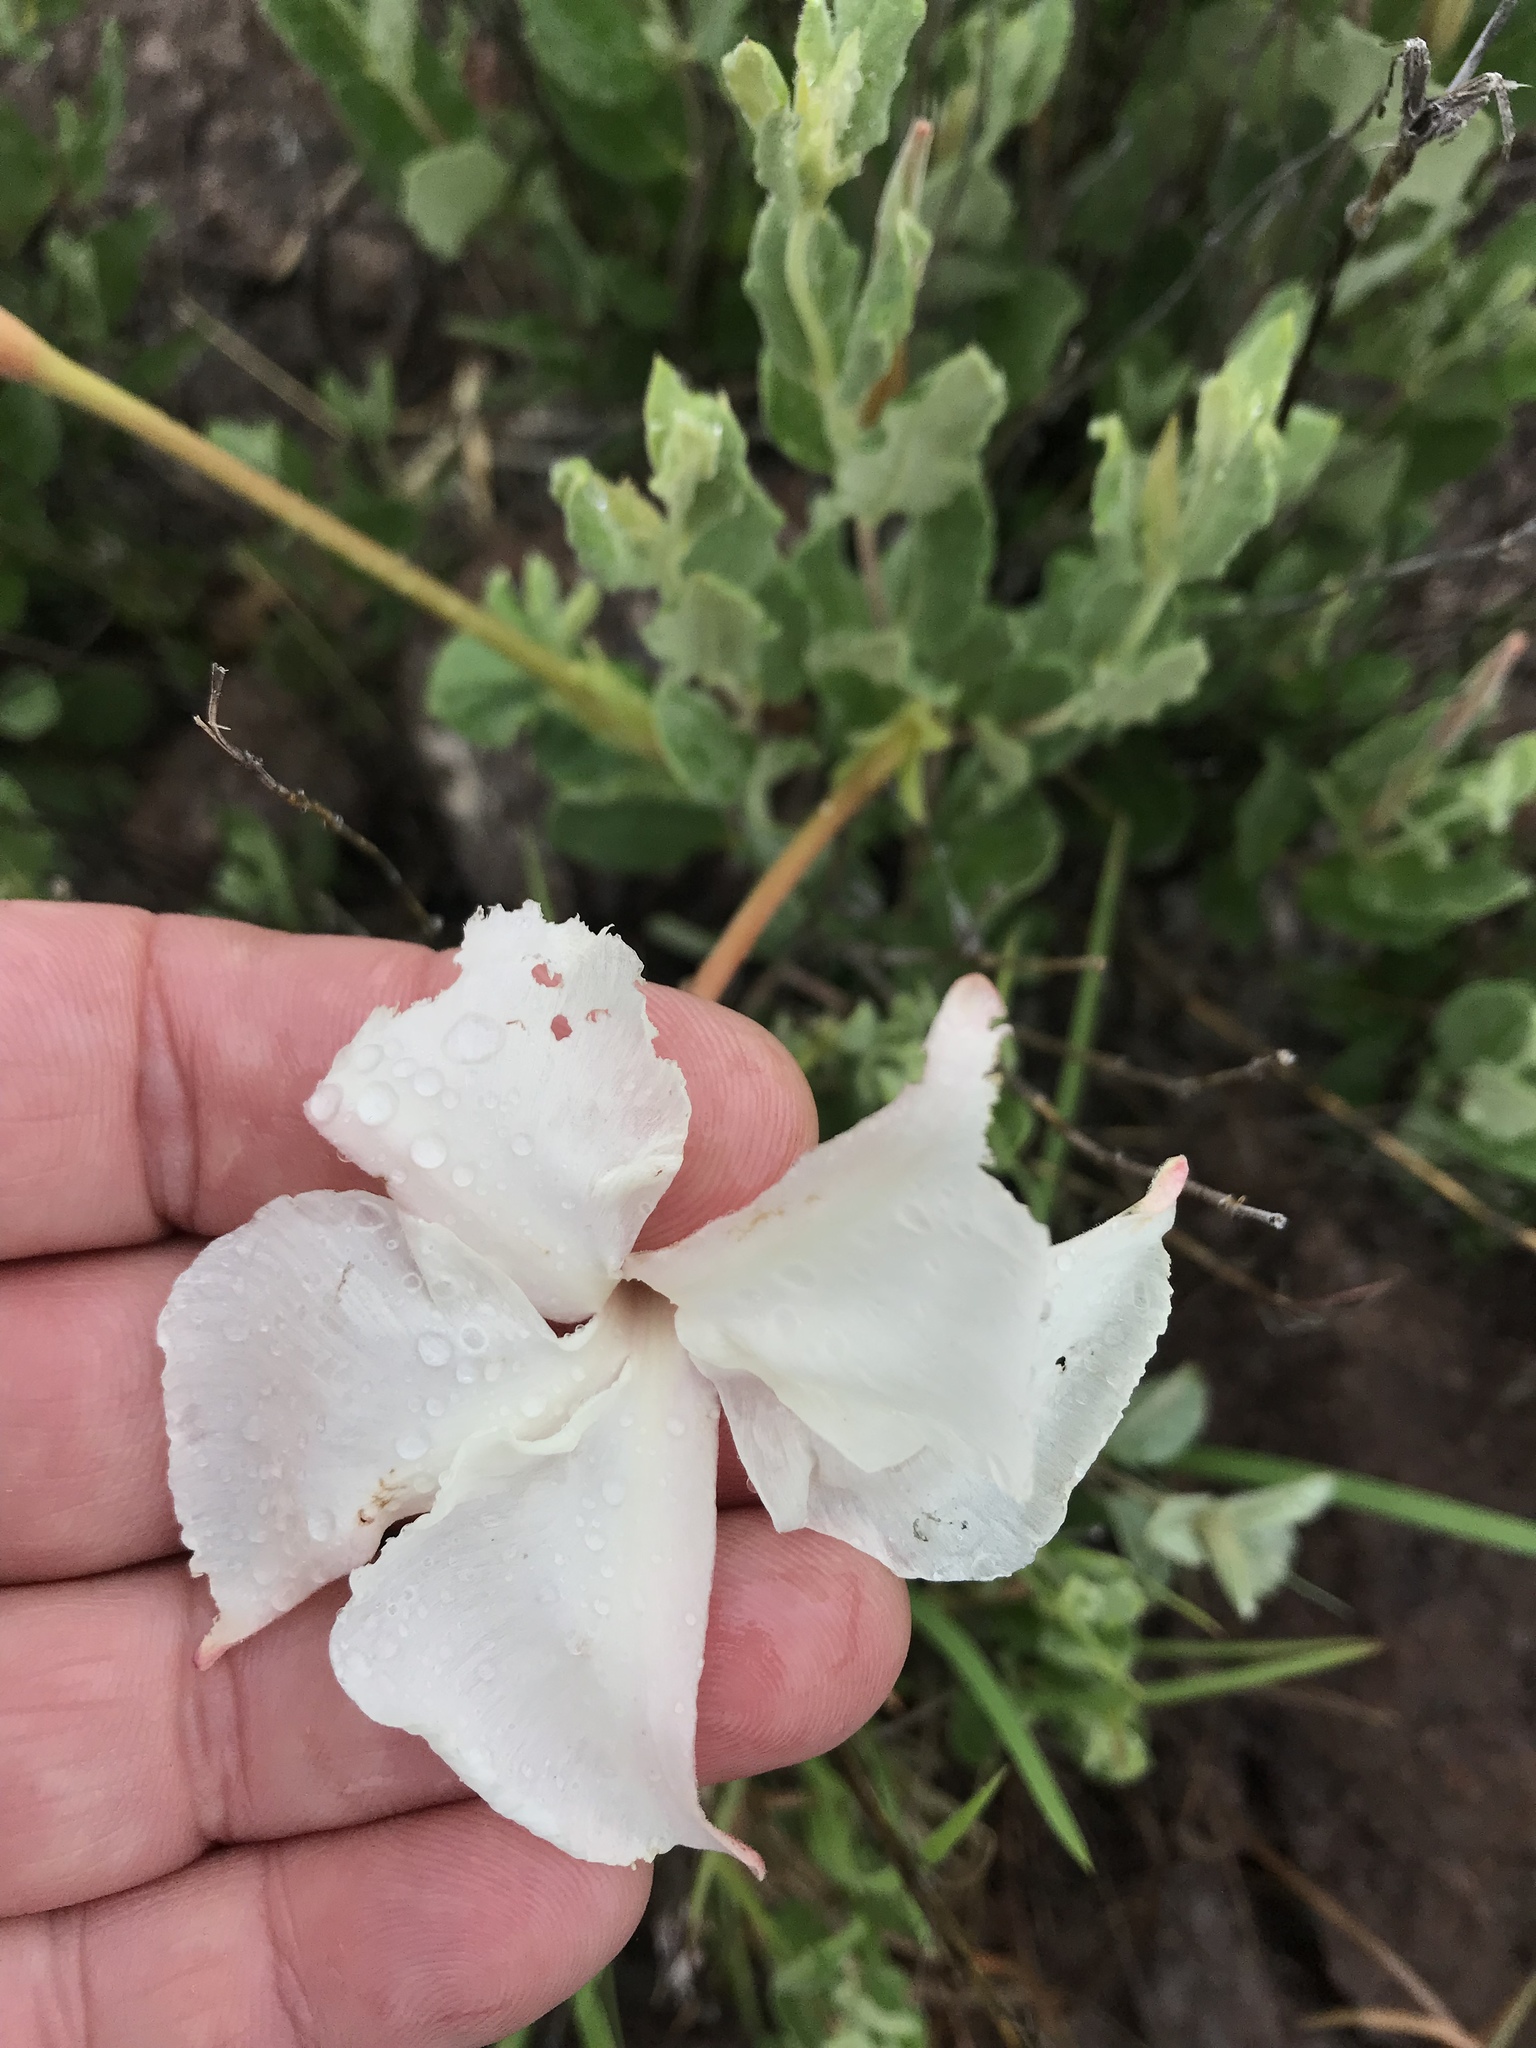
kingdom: Plantae
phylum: Tracheophyta
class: Magnoliopsida
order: Gentianales
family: Apocynaceae
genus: Mandevilla
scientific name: Mandevilla macrosiphon
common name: Plateau rocktrumpet
